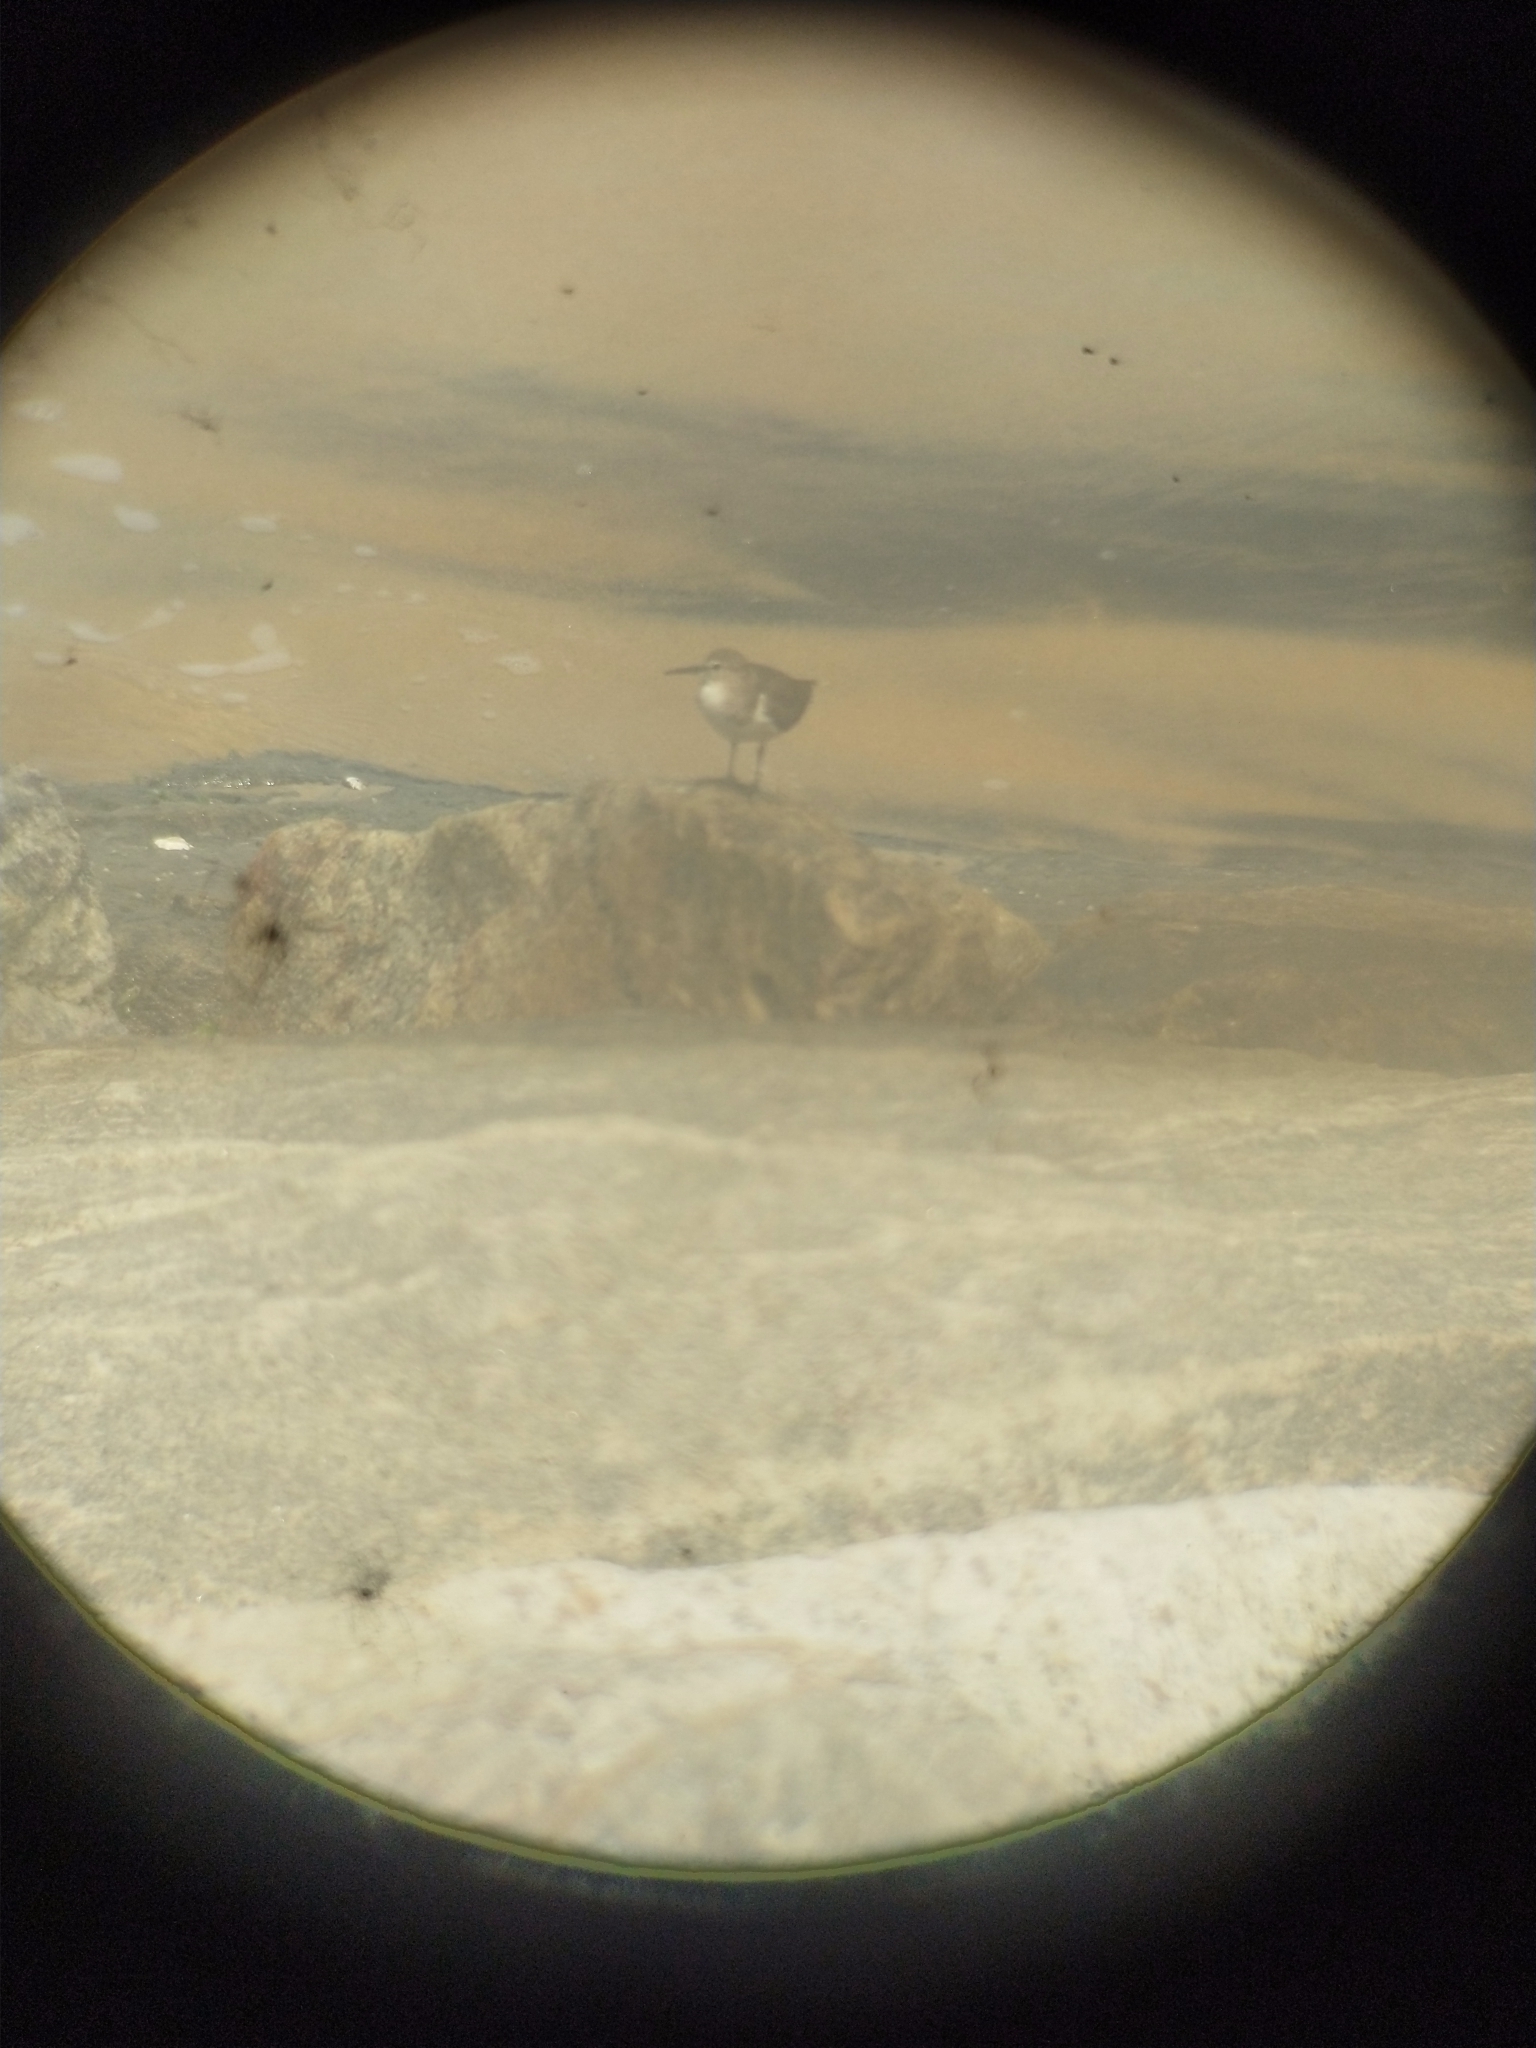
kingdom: Animalia
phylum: Chordata
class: Aves
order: Charadriiformes
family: Scolopacidae
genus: Actitis
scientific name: Actitis hypoleucos
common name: Common sandpiper
